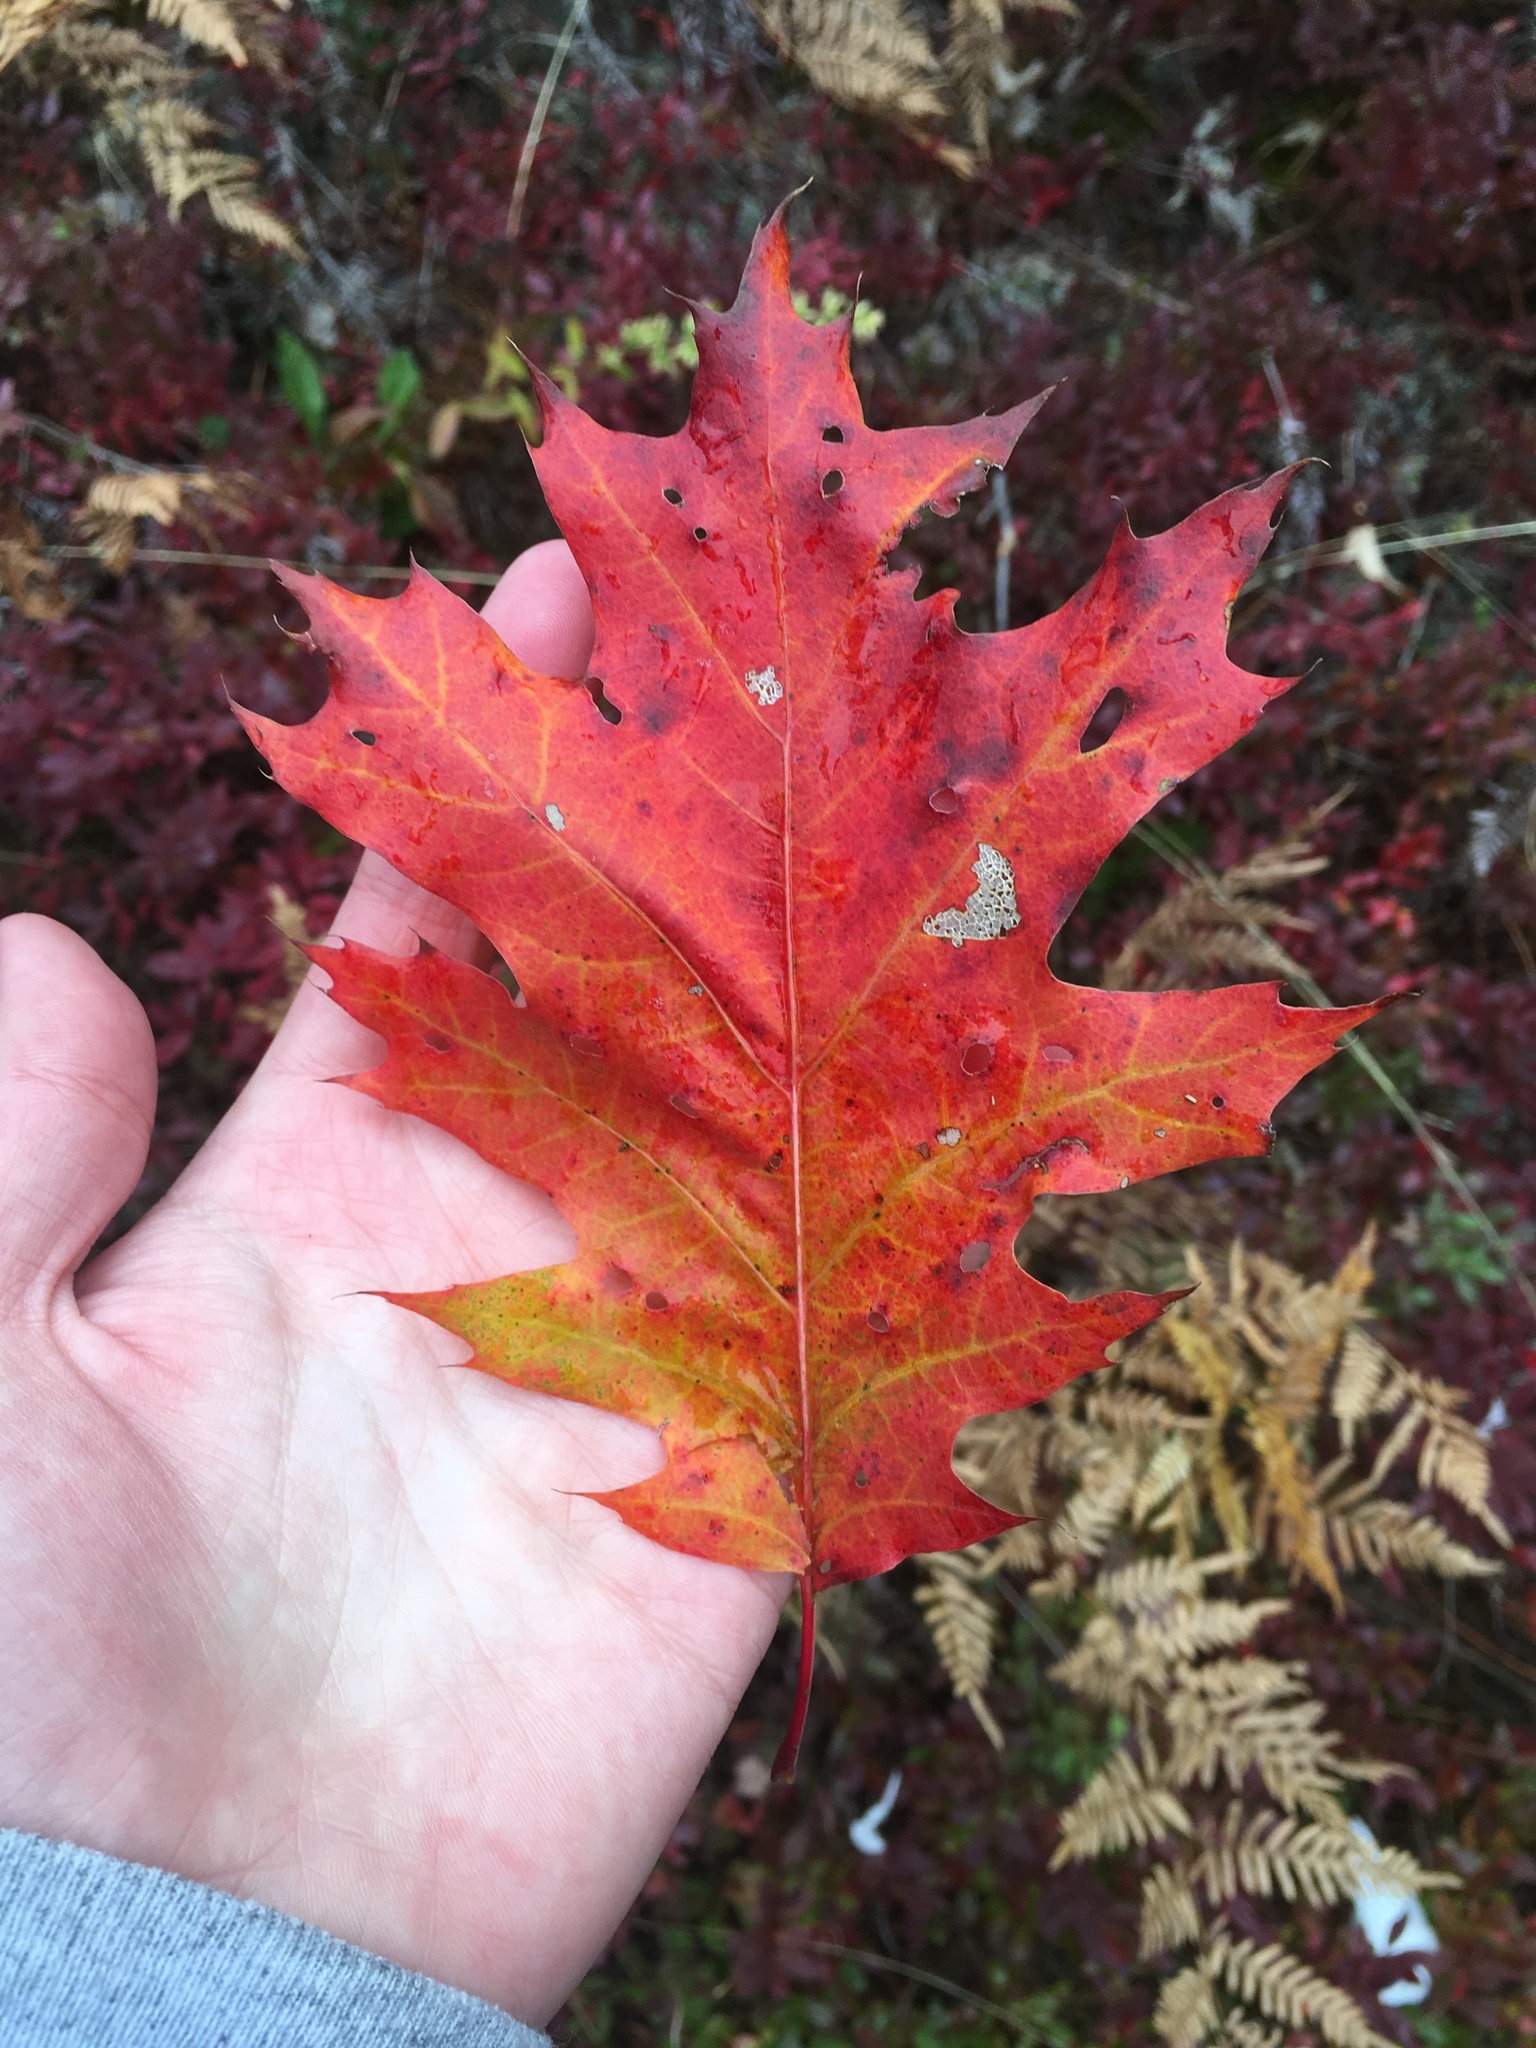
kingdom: Plantae
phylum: Tracheophyta
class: Magnoliopsida
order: Fagales
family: Fagaceae
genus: Quercus
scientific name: Quercus rubra
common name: Red oak
